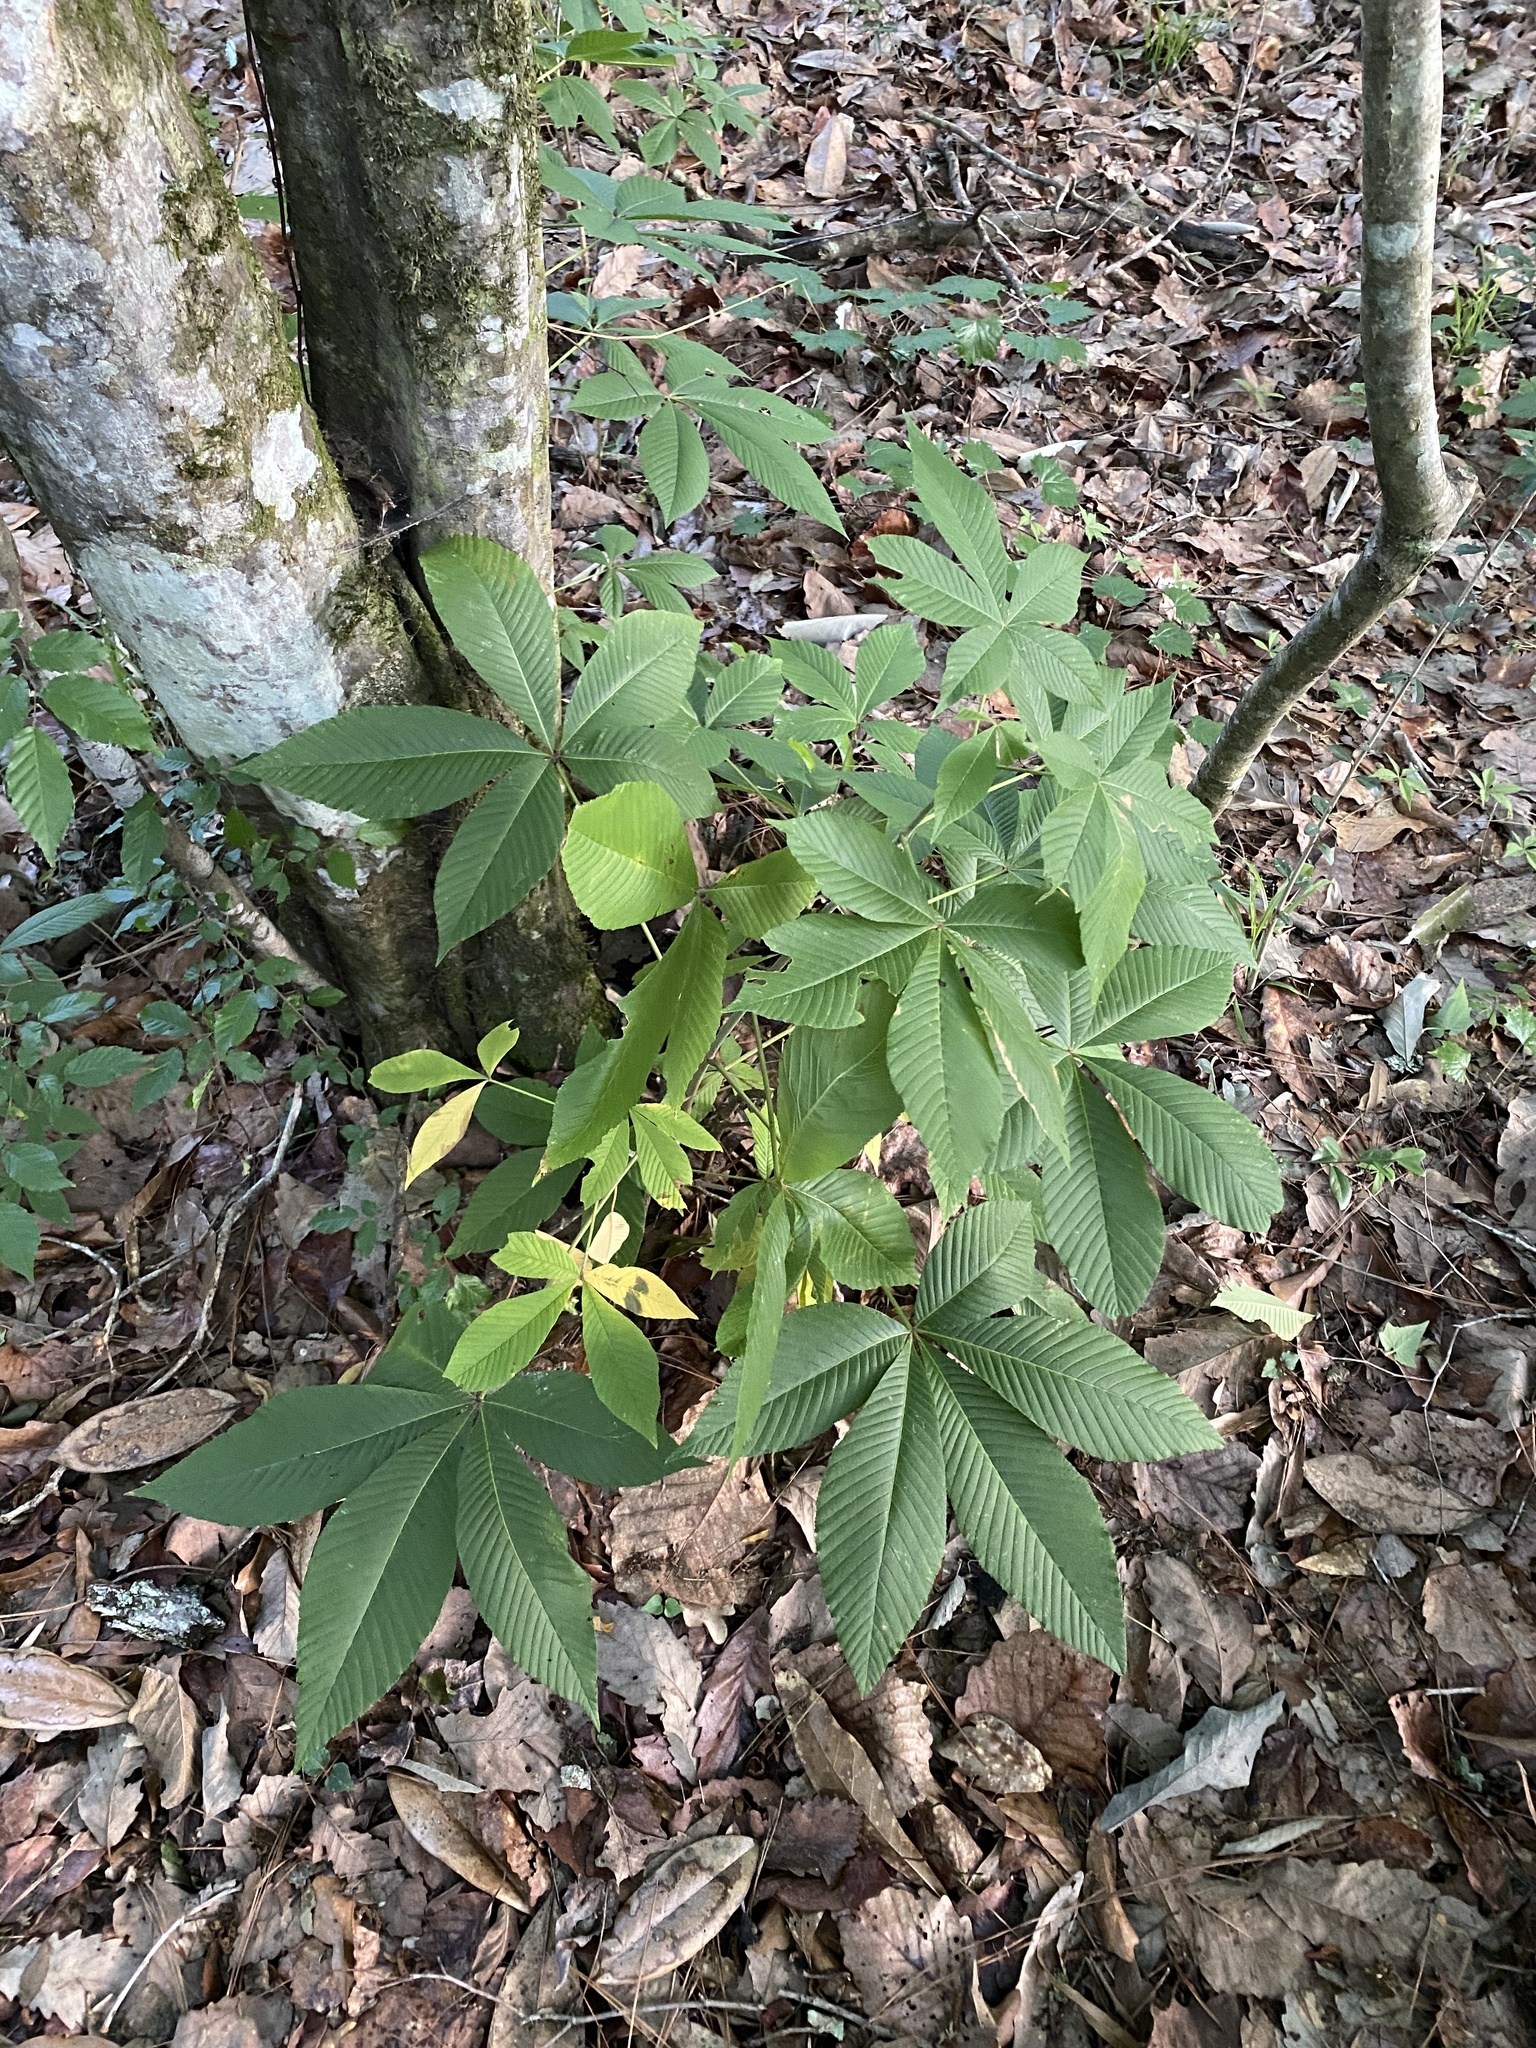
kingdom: Plantae
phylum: Tracheophyta
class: Magnoliopsida
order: Sapindales
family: Sapindaceae
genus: Aesculus
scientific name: Aesculus pavia
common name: Red buckeye
